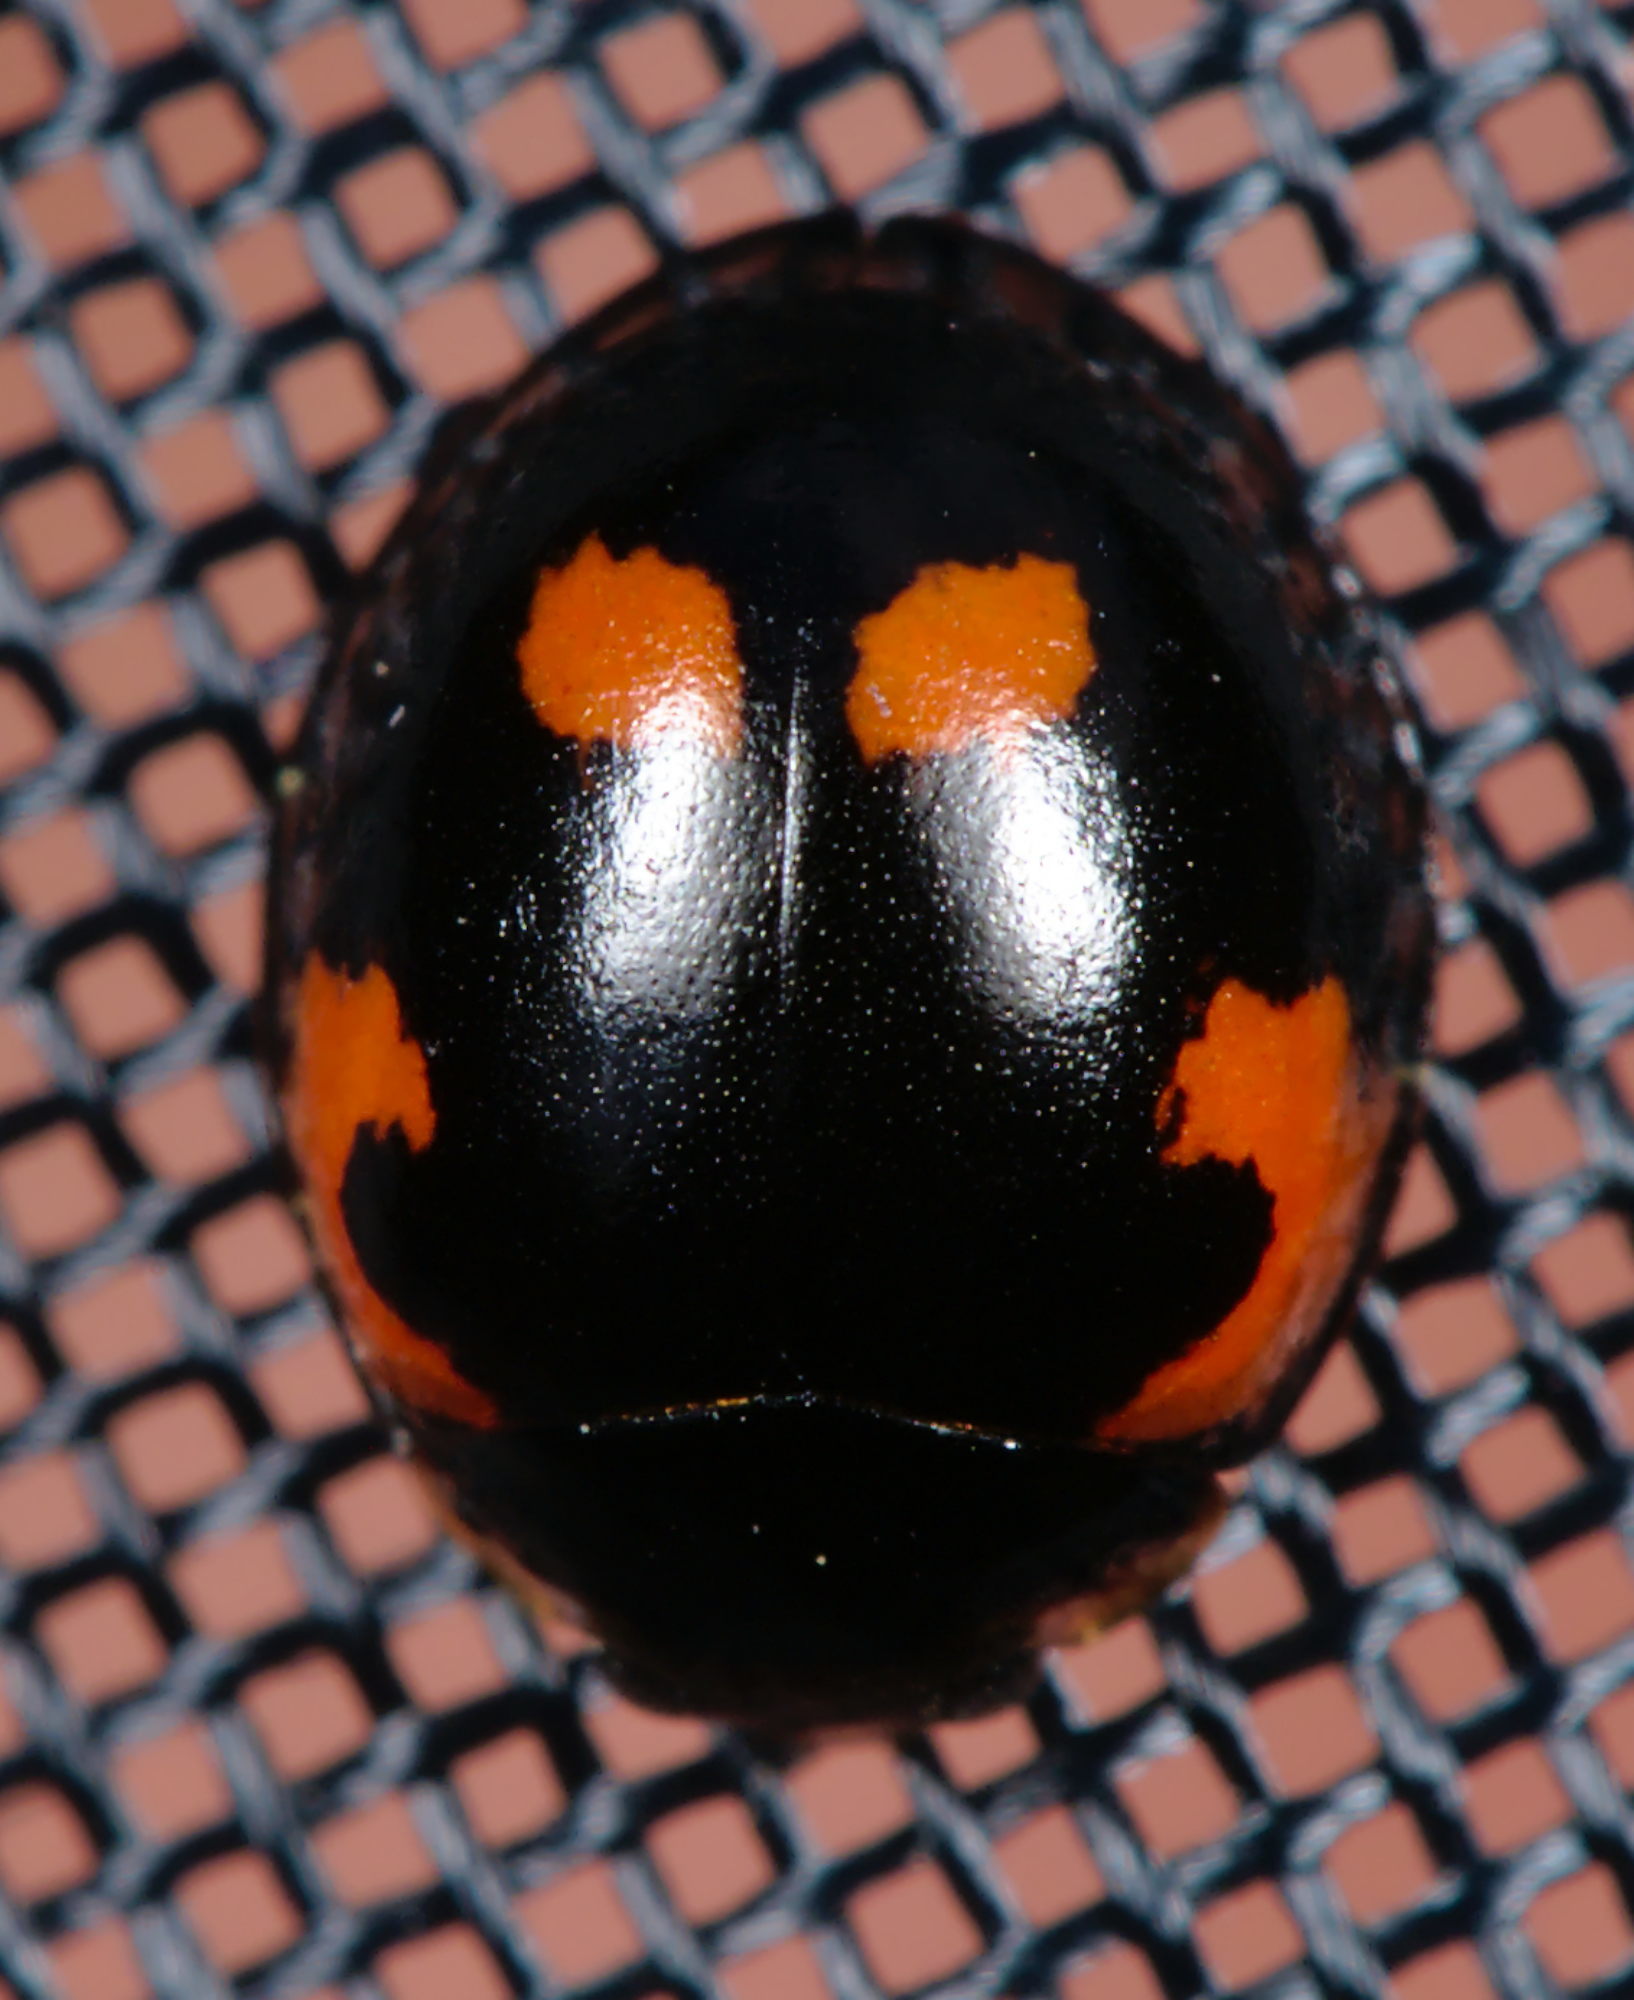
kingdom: Animalia
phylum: Arthropoda
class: Insecta
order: Coleoptera
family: Coccinellidae
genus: Brumus
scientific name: Brumus quadripustulatus
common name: Ladybird beetle
